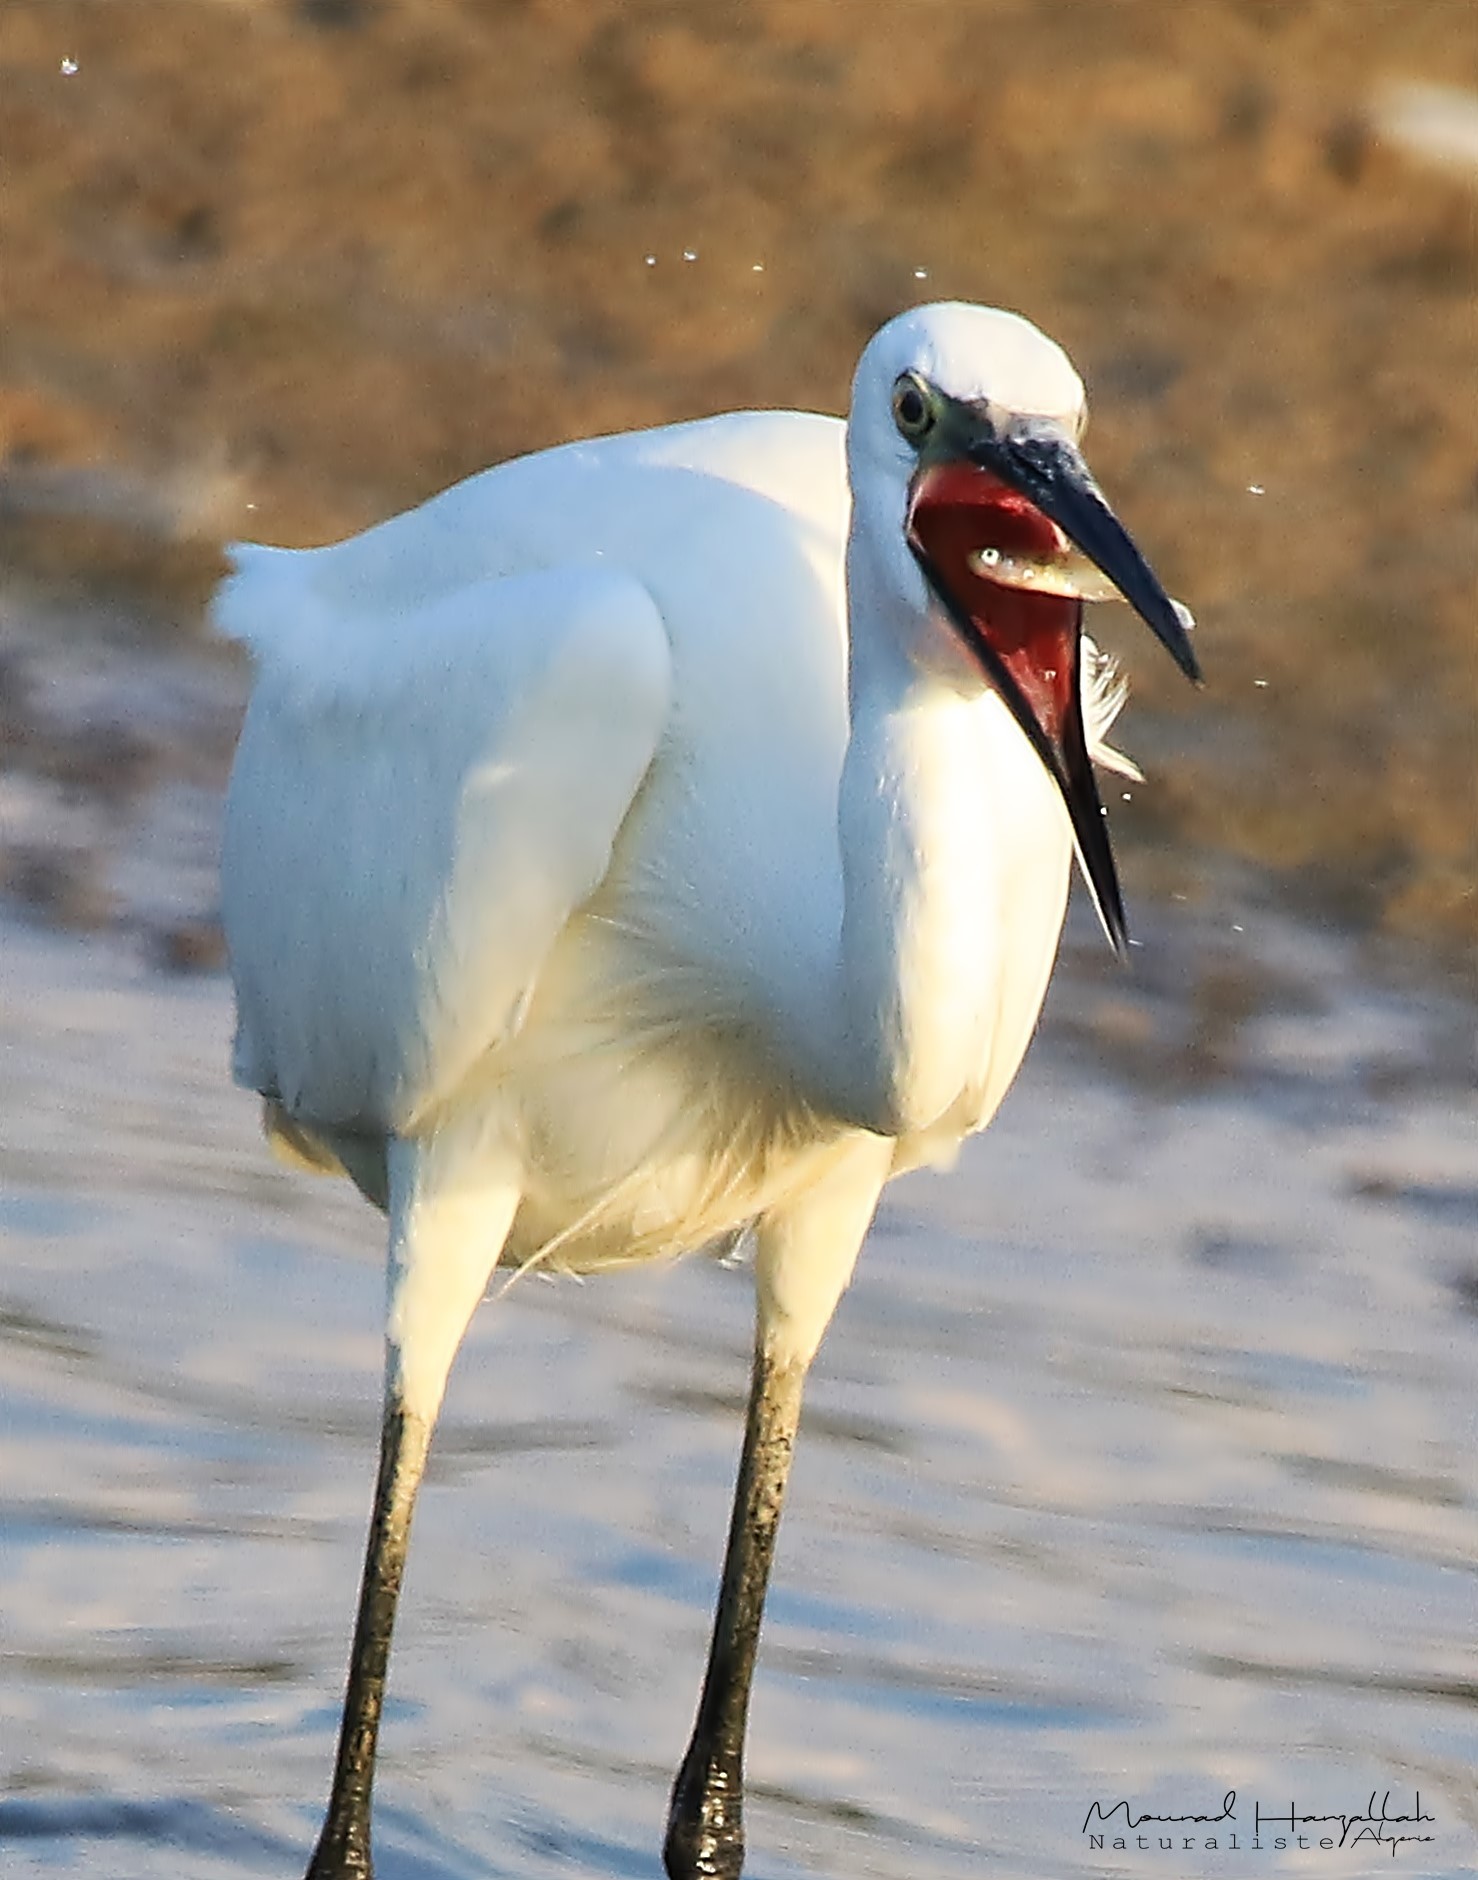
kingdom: Animalia
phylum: Chordata
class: Aves
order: Pelecaniformes
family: Ardeidae
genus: Egretta
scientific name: Egretta garzetta
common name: Little egret
